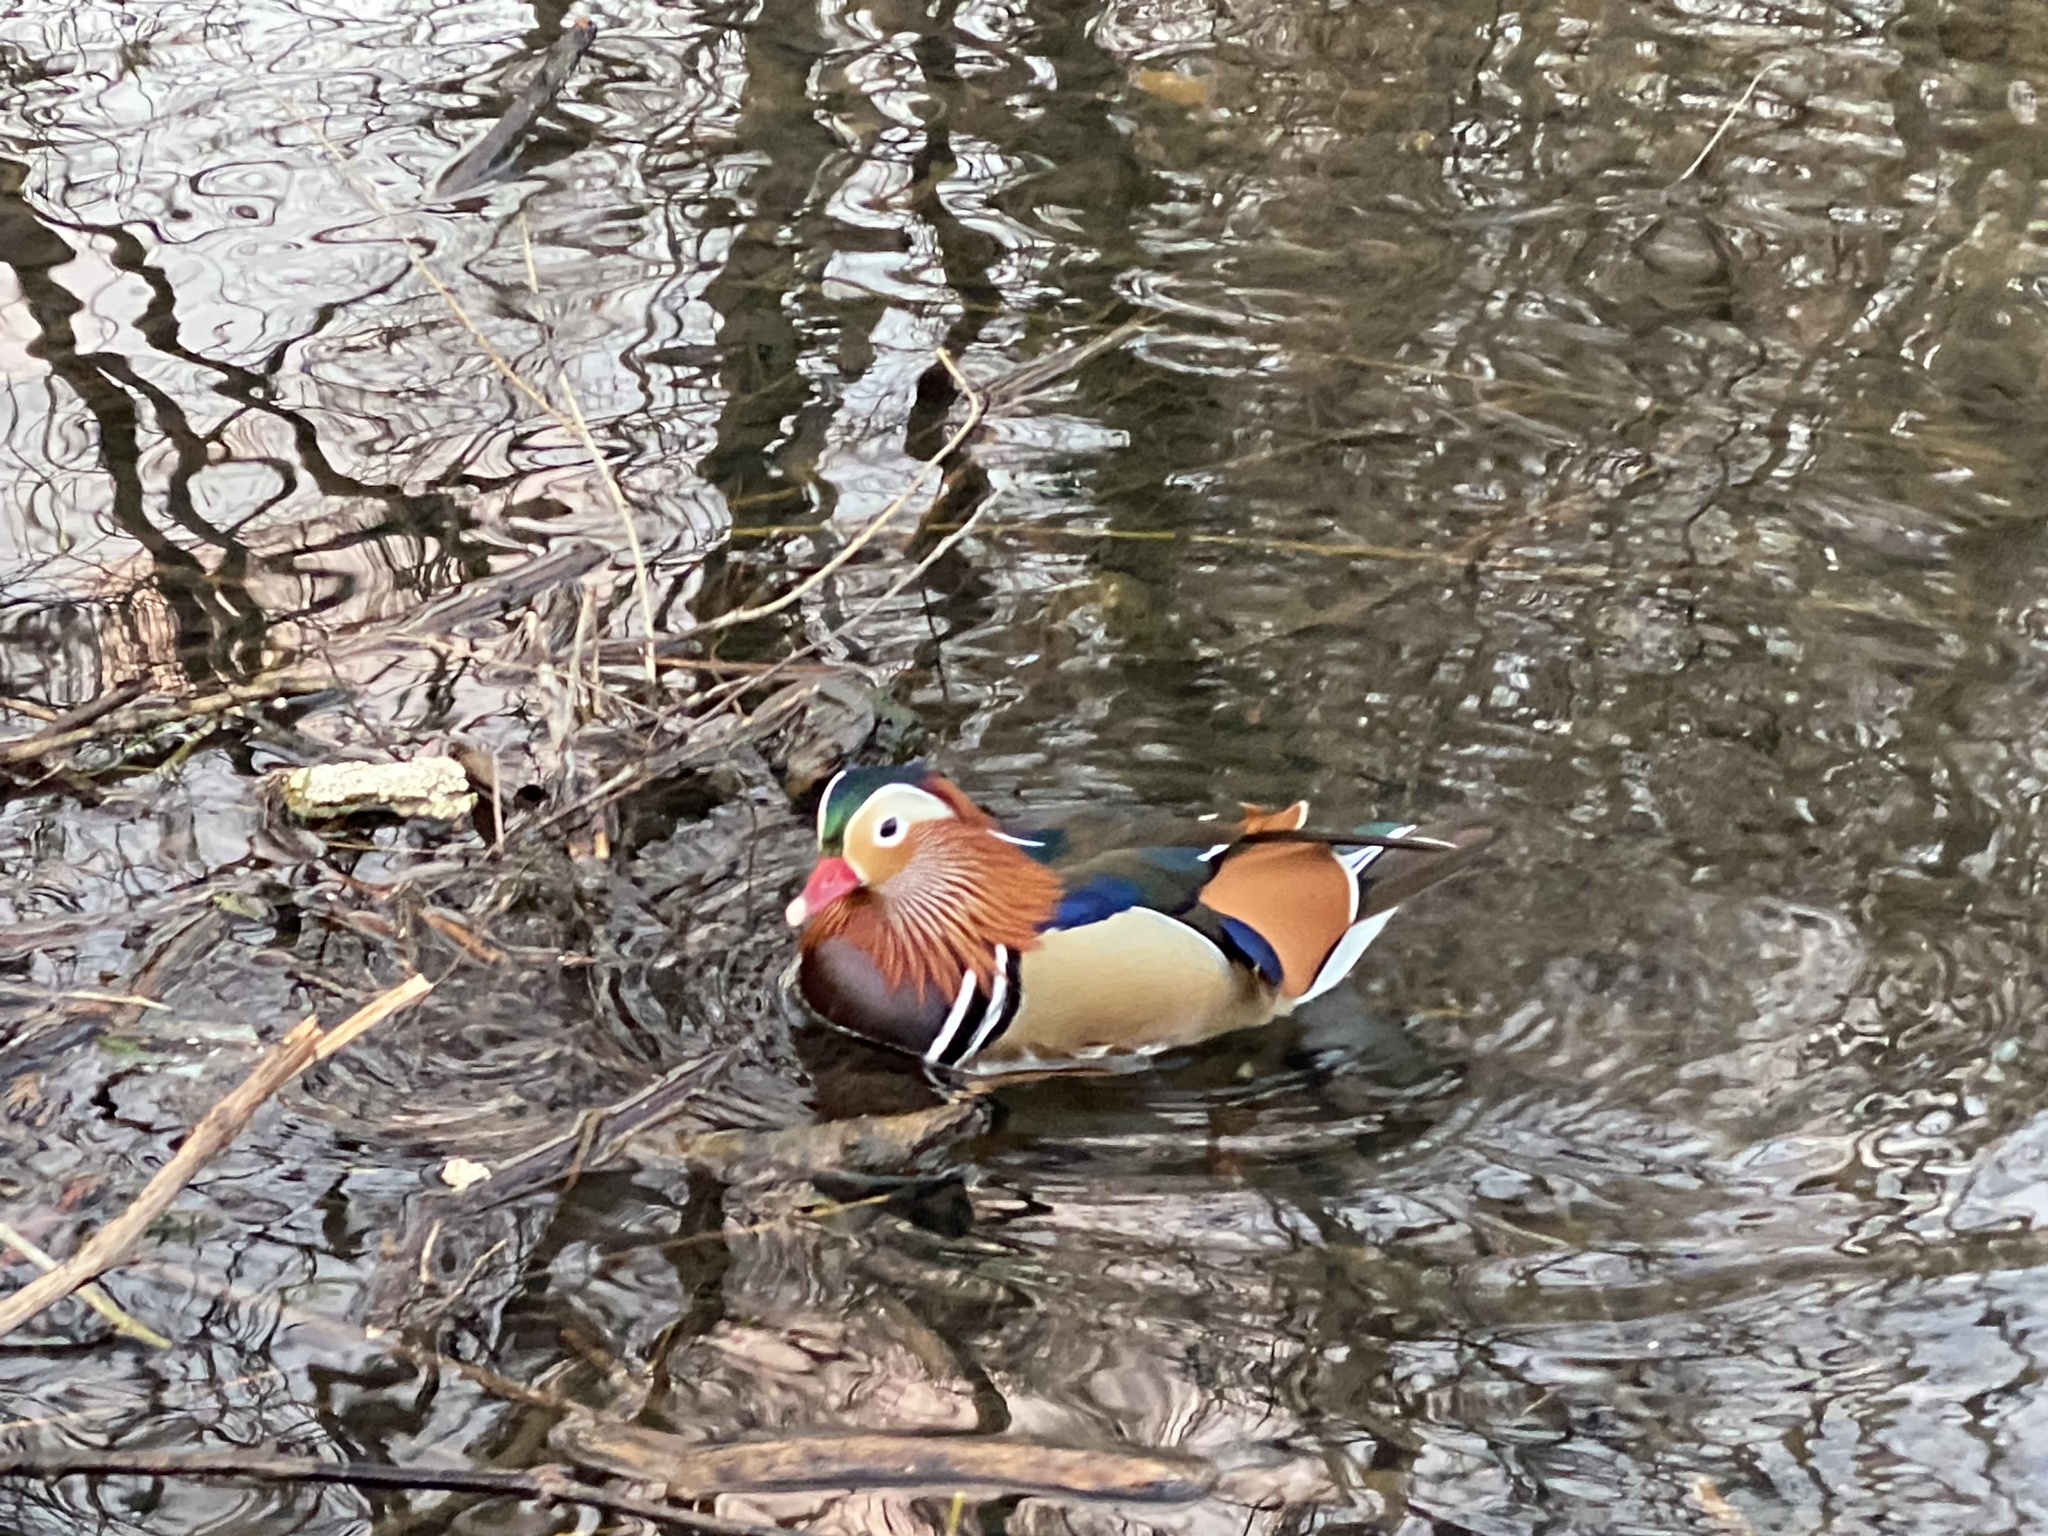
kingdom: Animalia
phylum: Chordata
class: Aves
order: Anseriformes
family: Anatidae
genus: Aix
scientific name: Aix galericulata
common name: Mandarin duck
